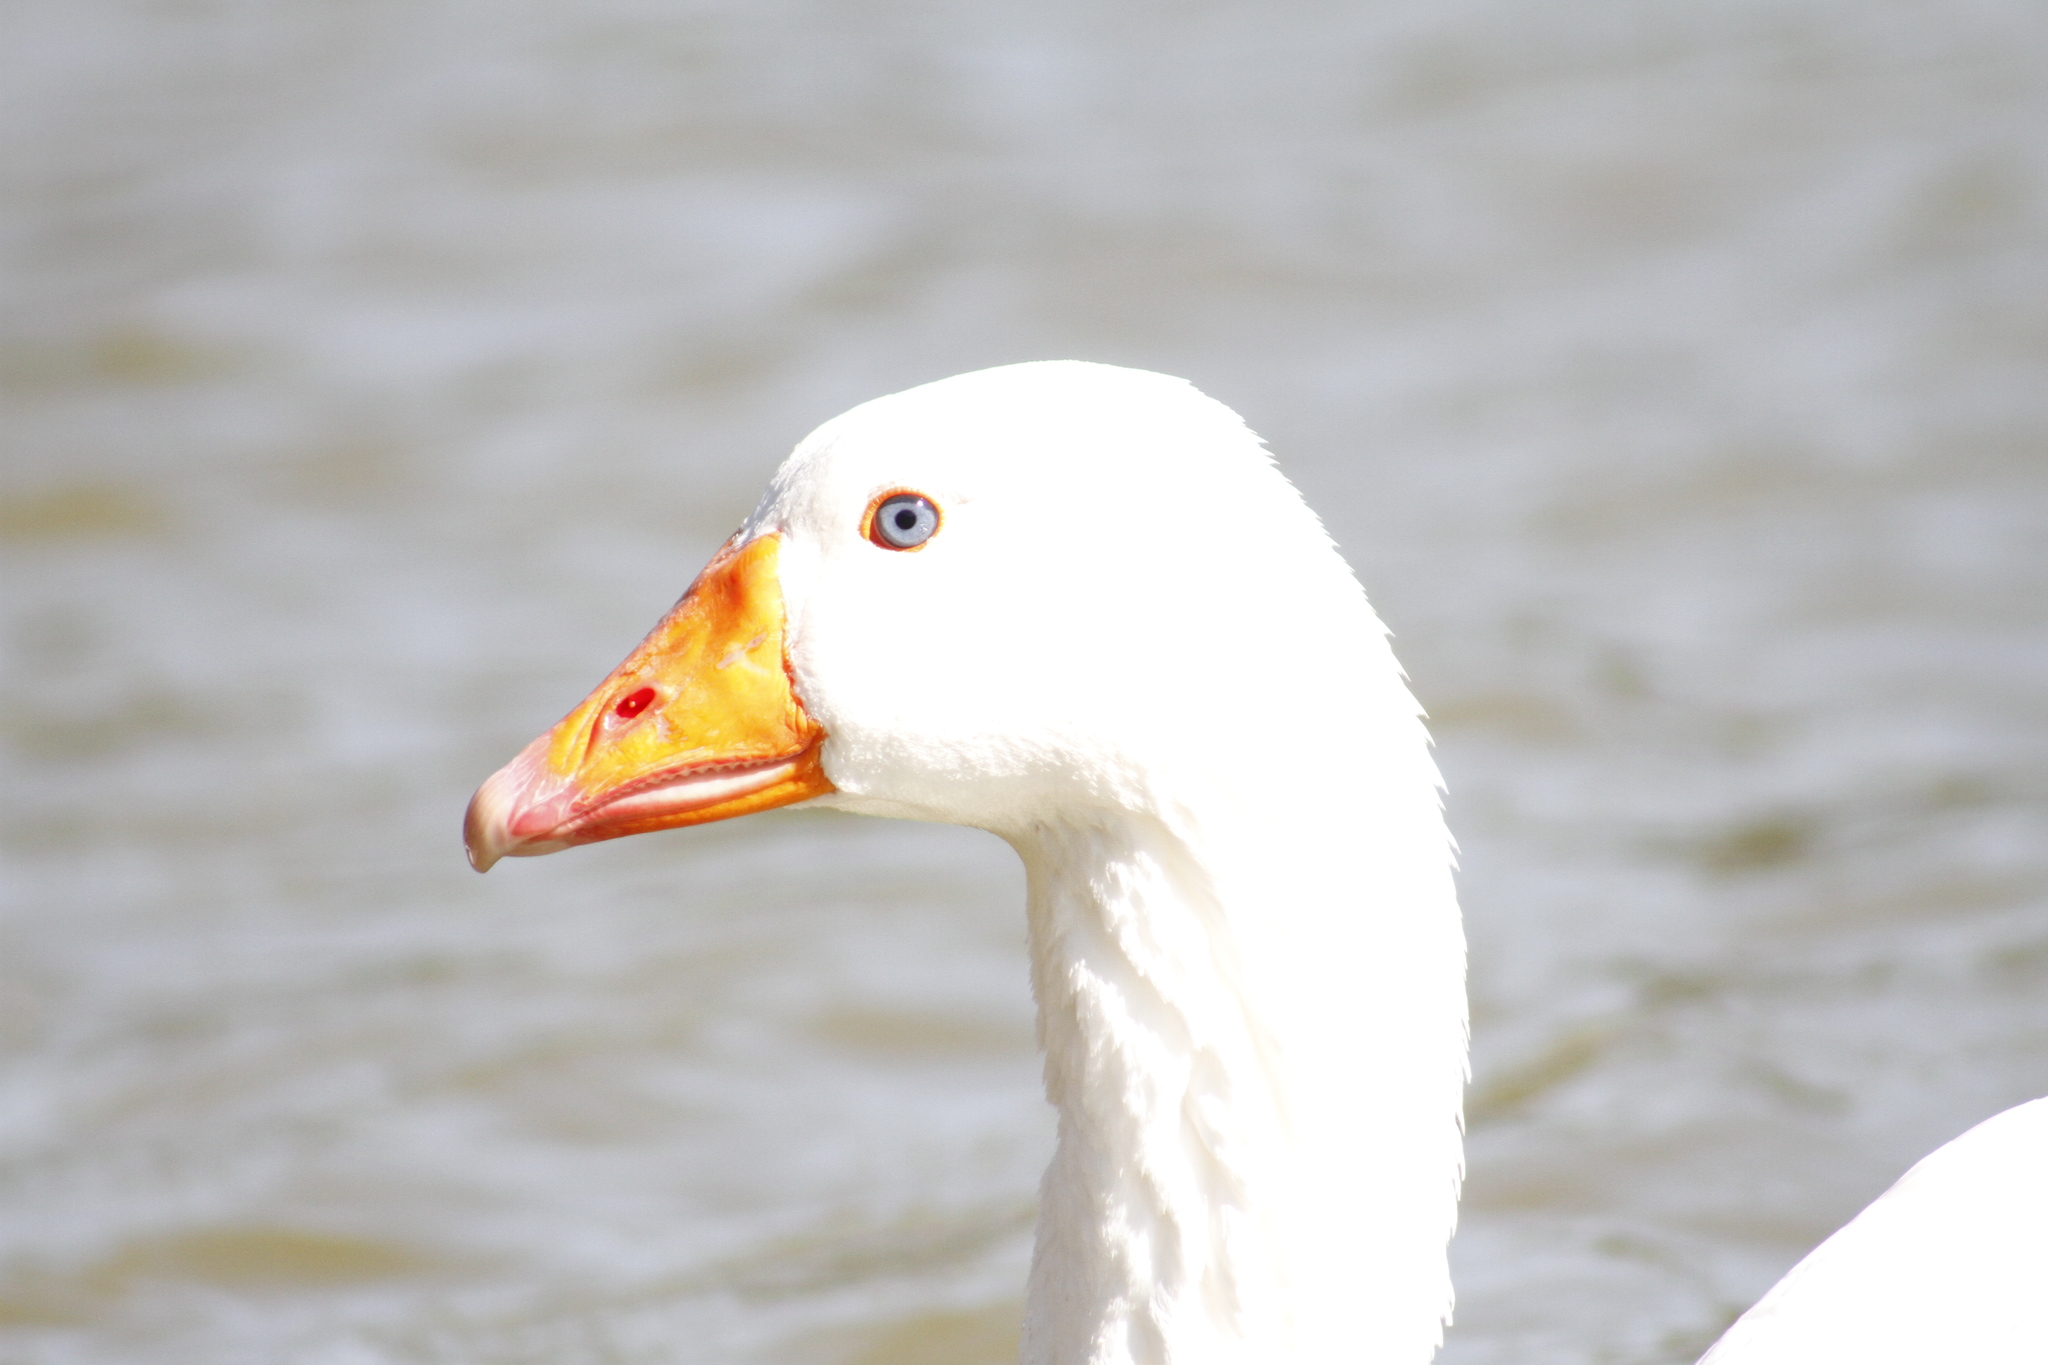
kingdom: Animalia
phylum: Chordata
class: Aves
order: Anseriformes
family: Anatidae
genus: Anser
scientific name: Anser anser
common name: Greylag goose
